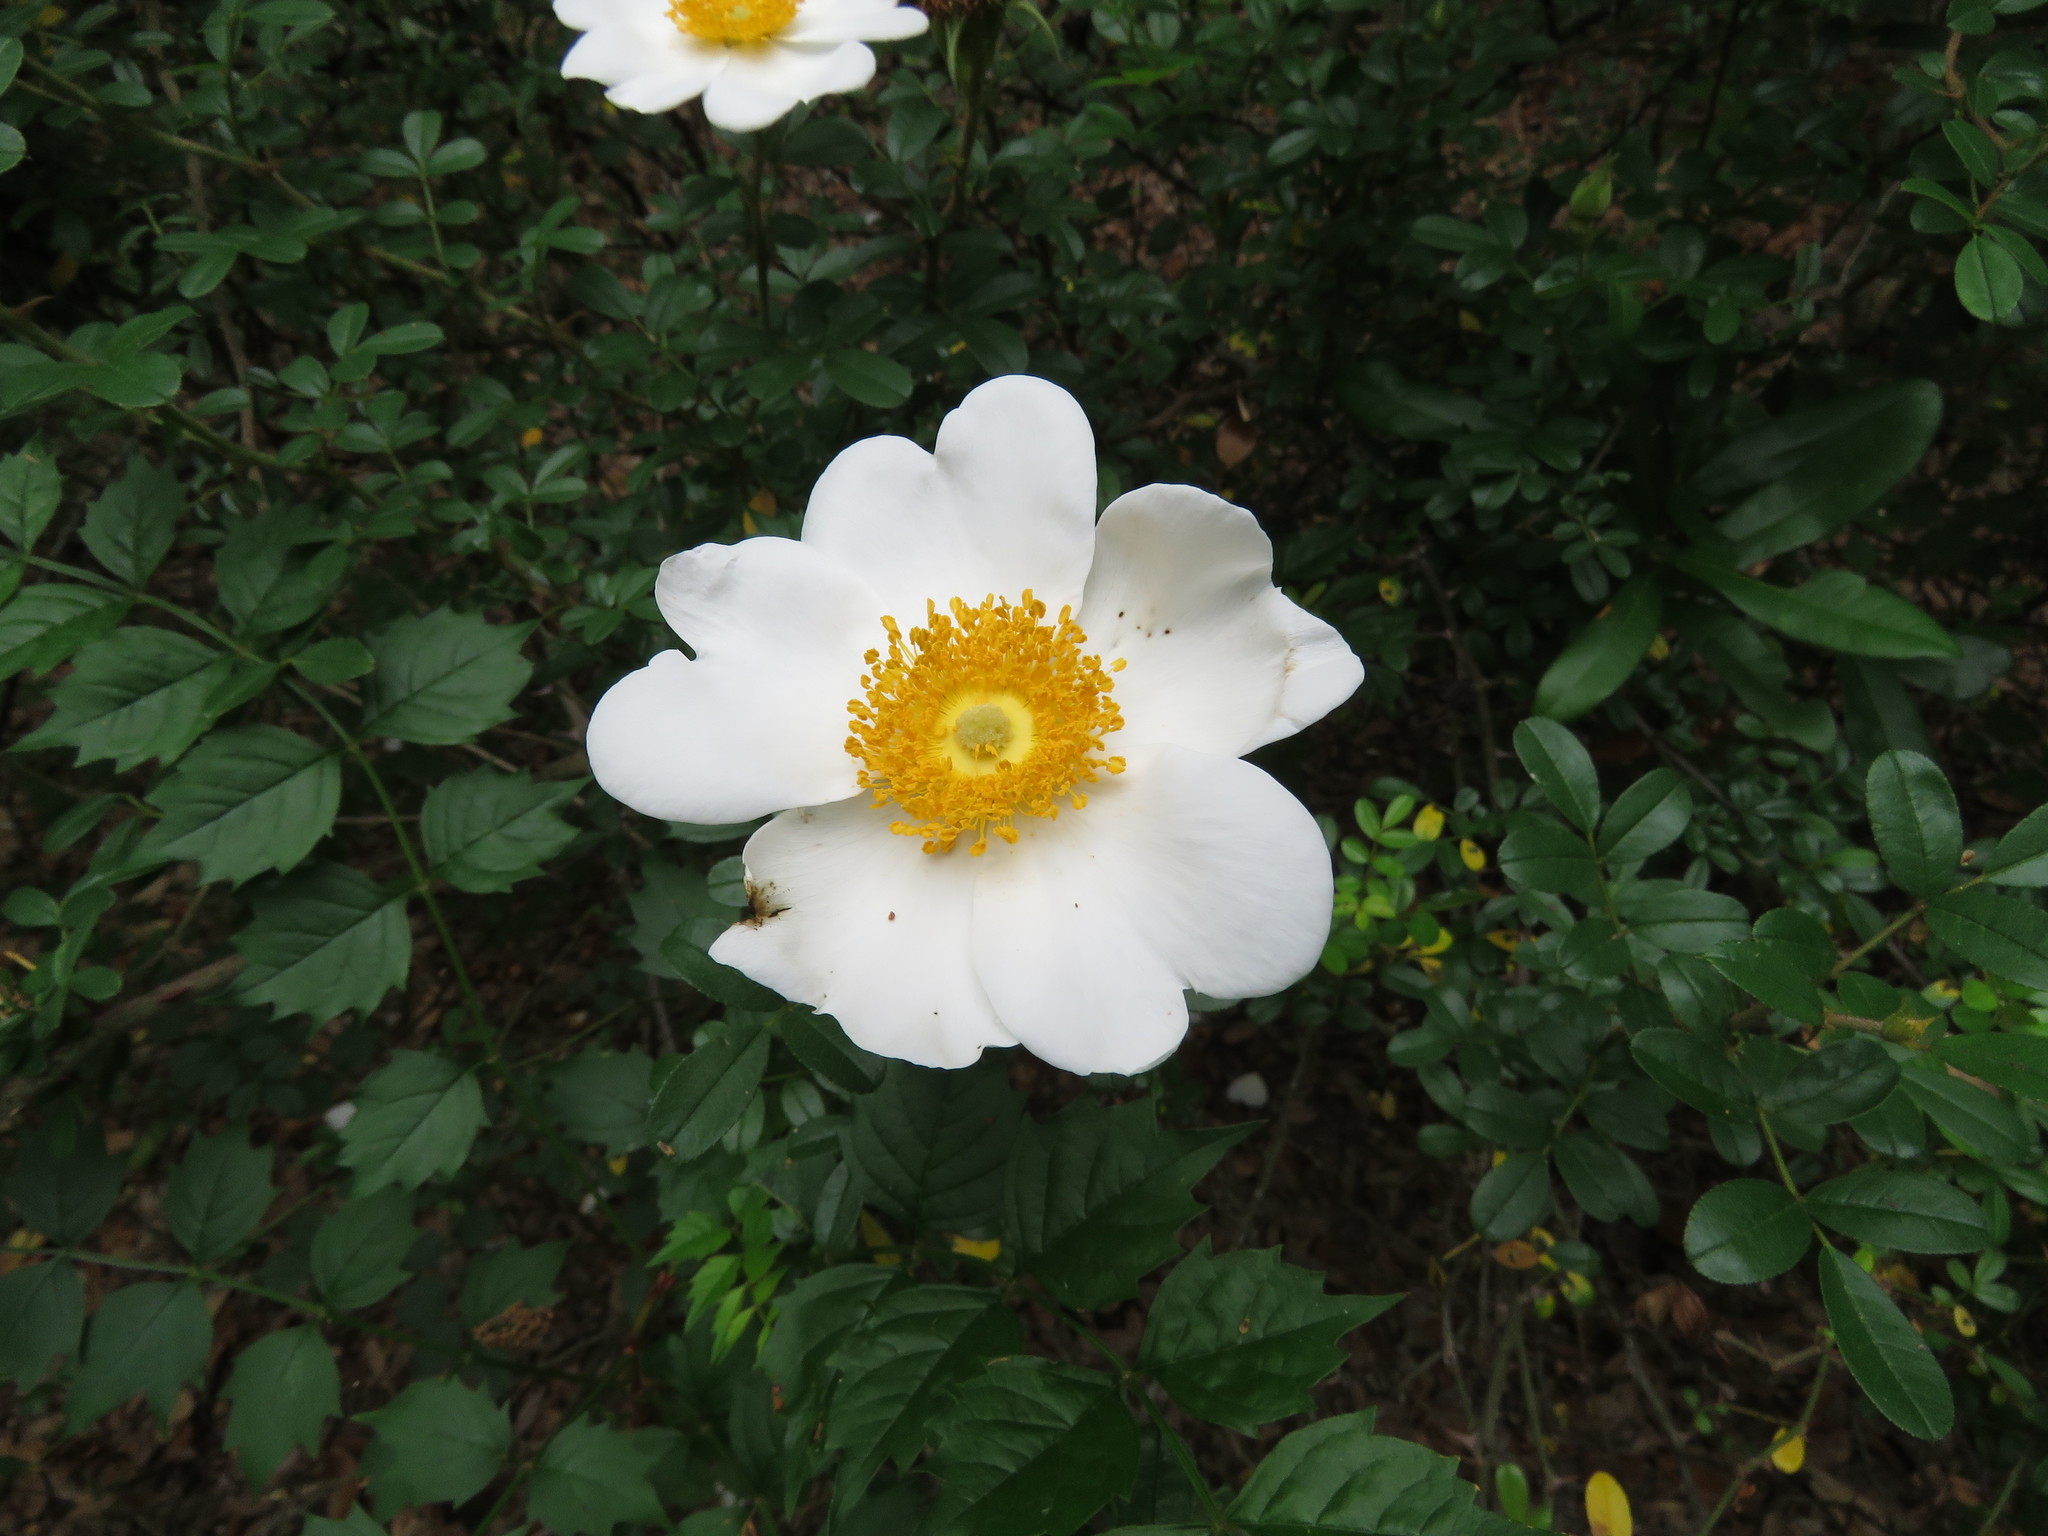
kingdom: Plantae
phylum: Tracheophyta
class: Magnoliopsida
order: Rosales
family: Rosaceae
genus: Rosa
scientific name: Rosa bracteata
